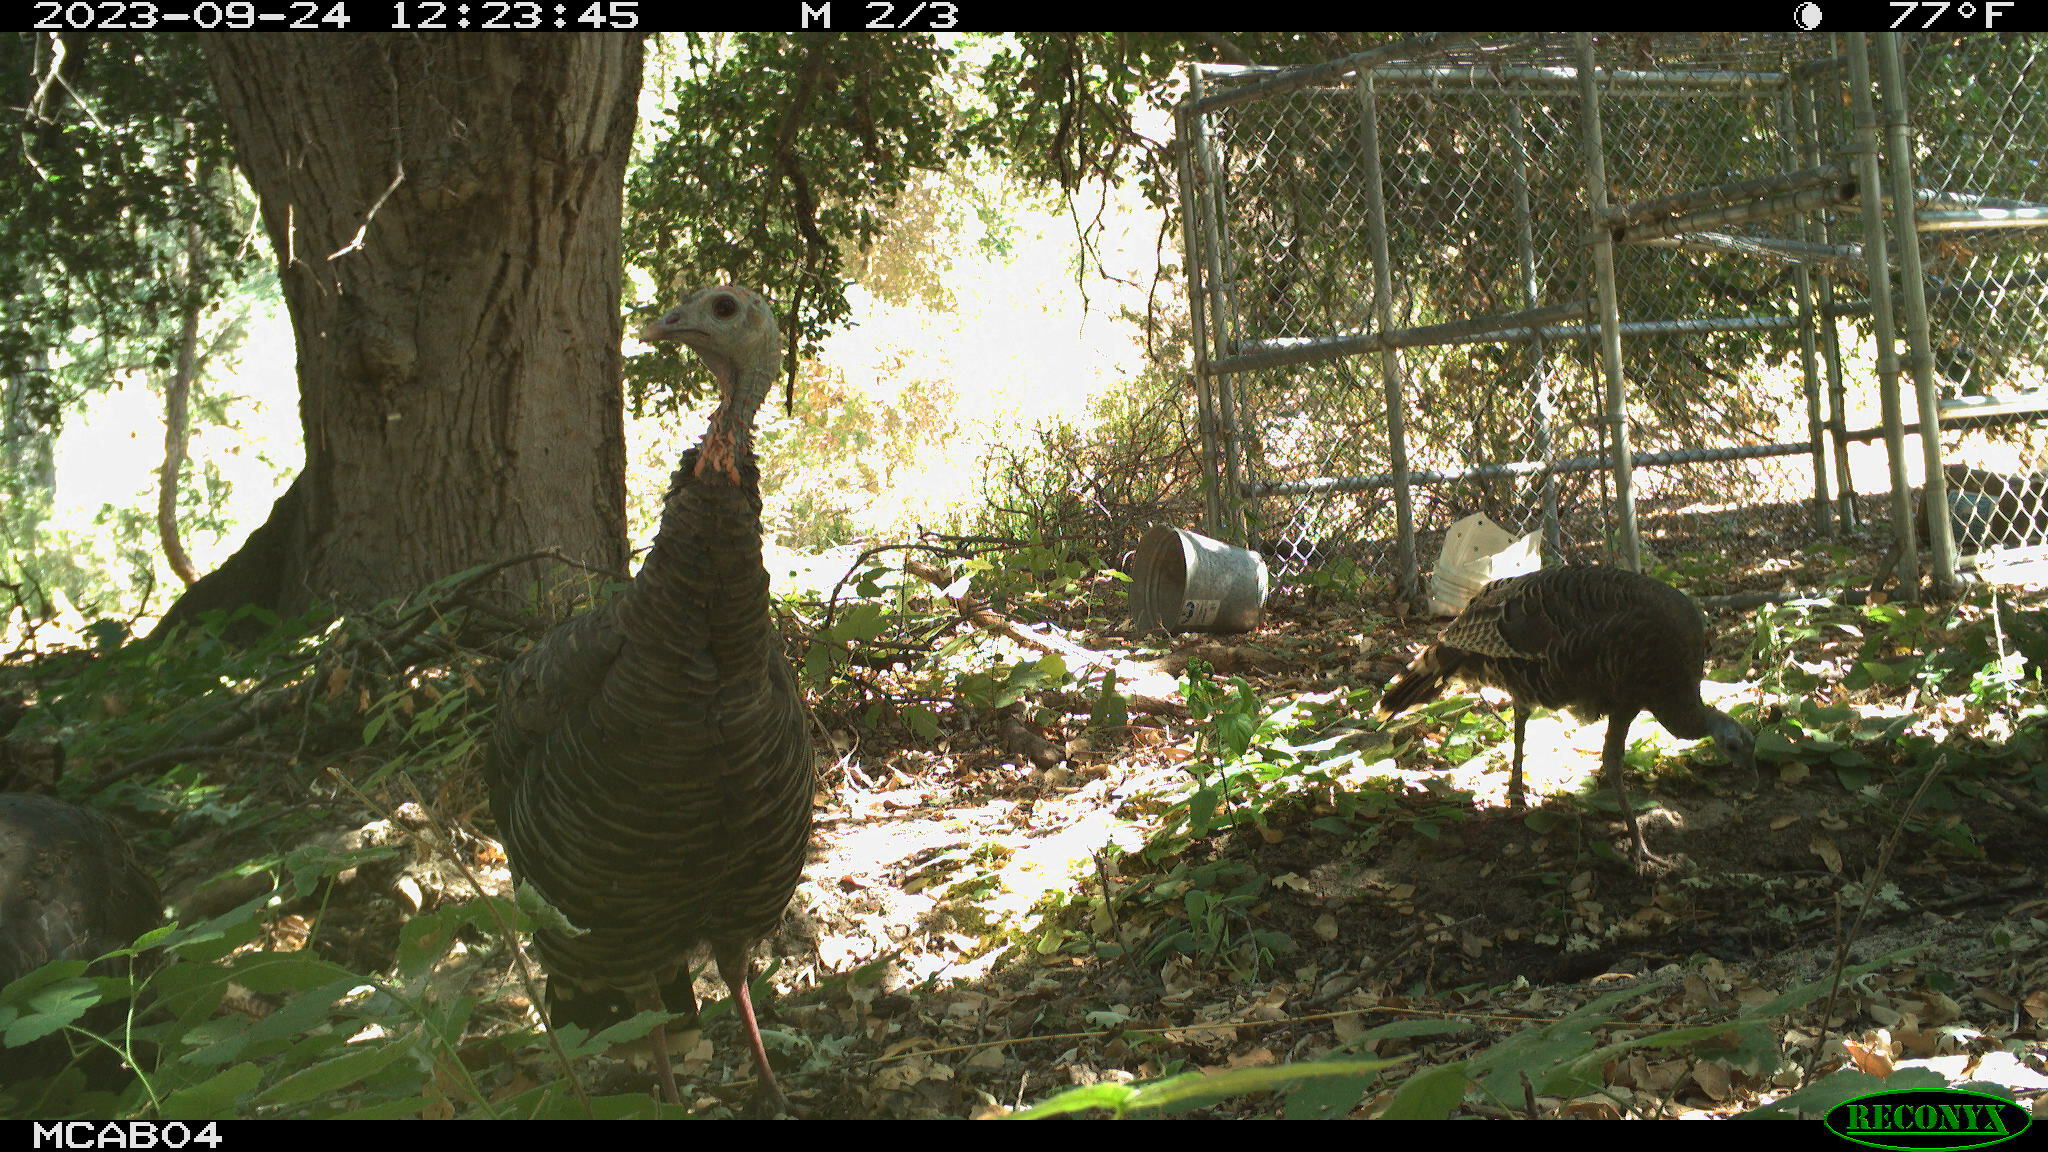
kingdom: Animalia
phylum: Chordata
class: Aves
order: Galliformes
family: Phasianidae
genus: Meleagris
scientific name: Meleagris gallopavo
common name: Wild turkey
